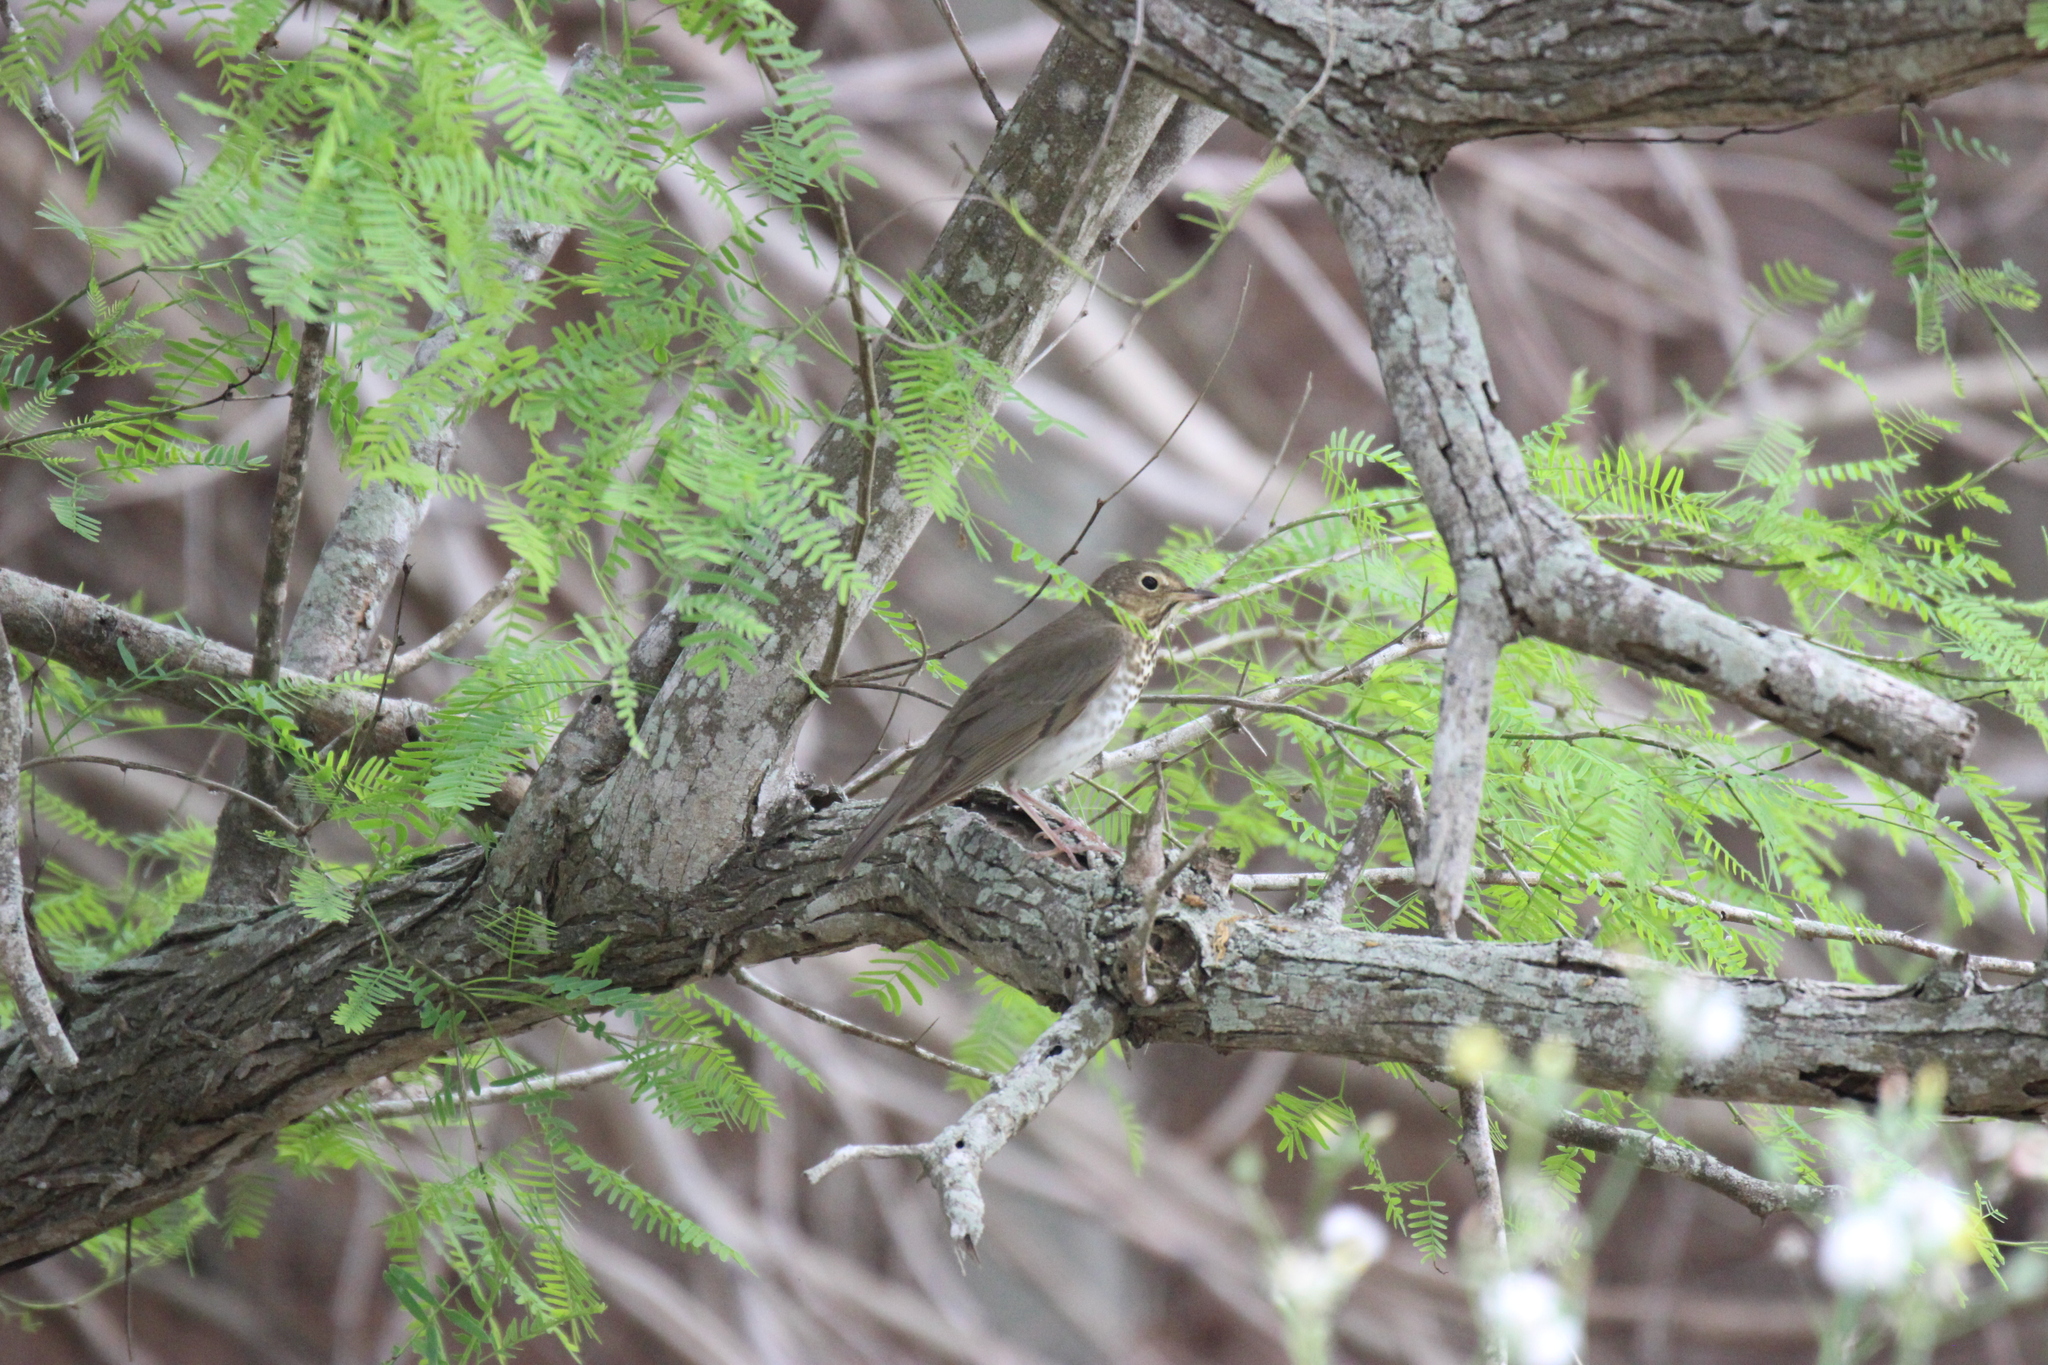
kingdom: Animalia
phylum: Chordata
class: Aves
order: Passeriformes
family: Turdidae
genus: Catharus
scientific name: Catharus ustulatus
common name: Swainson's thrush
